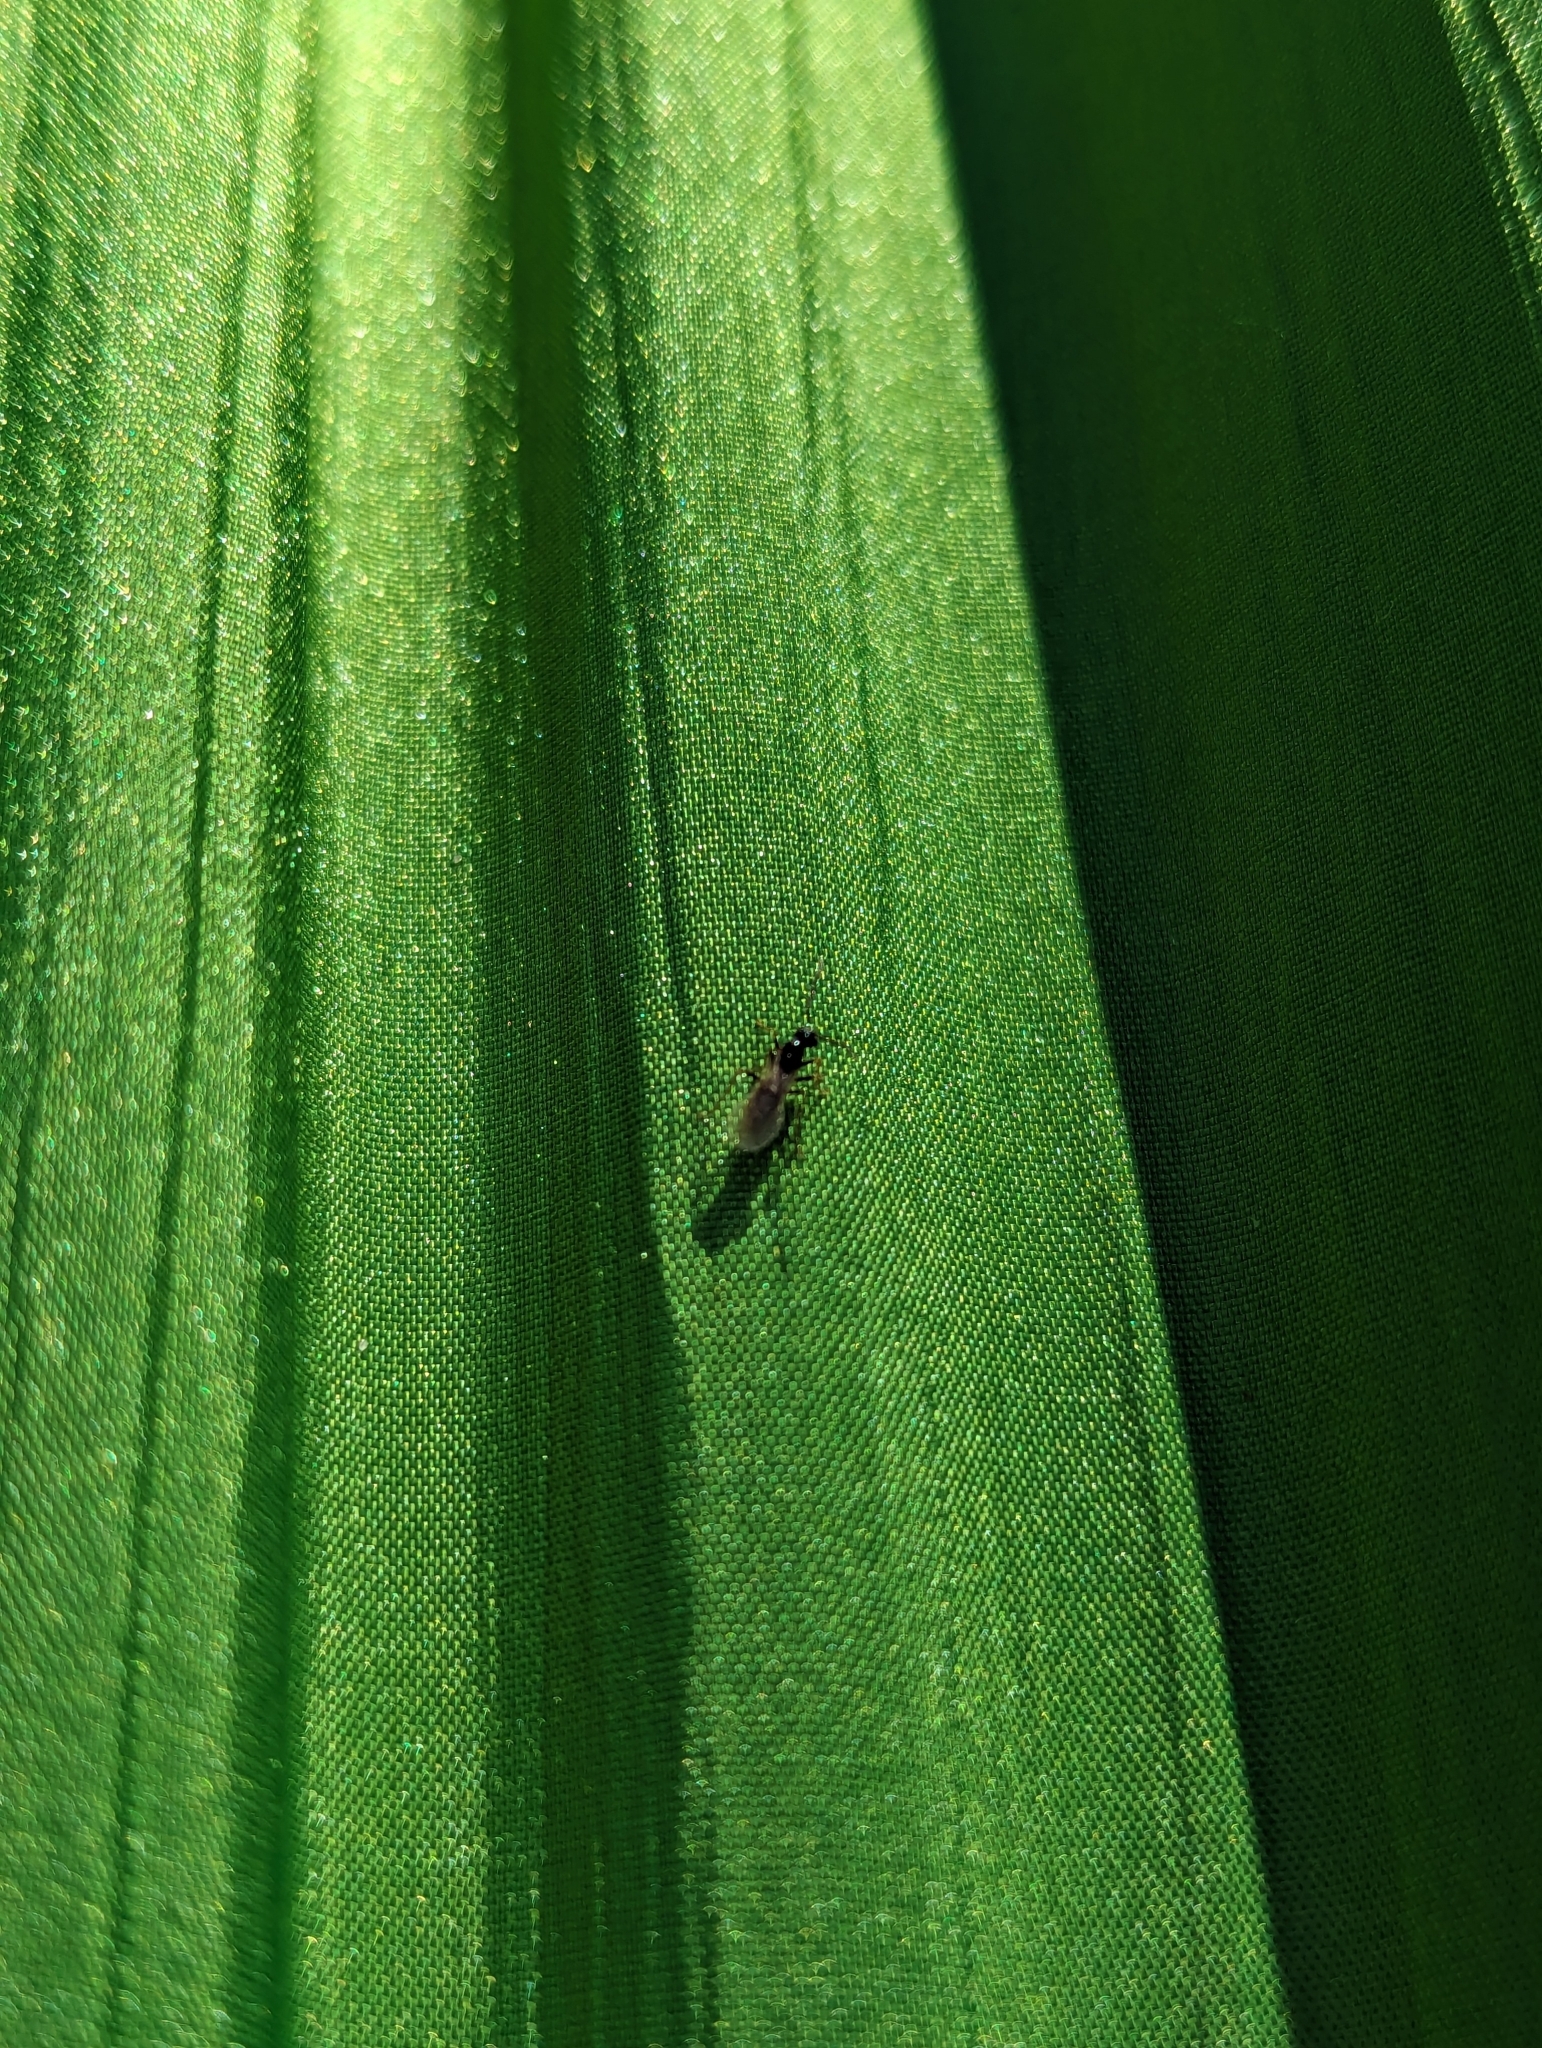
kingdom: Animalia
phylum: Arthropoda
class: Insecta
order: Hymenoptera
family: Formicidae
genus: Prenolepis
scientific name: Prenolepis imparis
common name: Small honey ant
